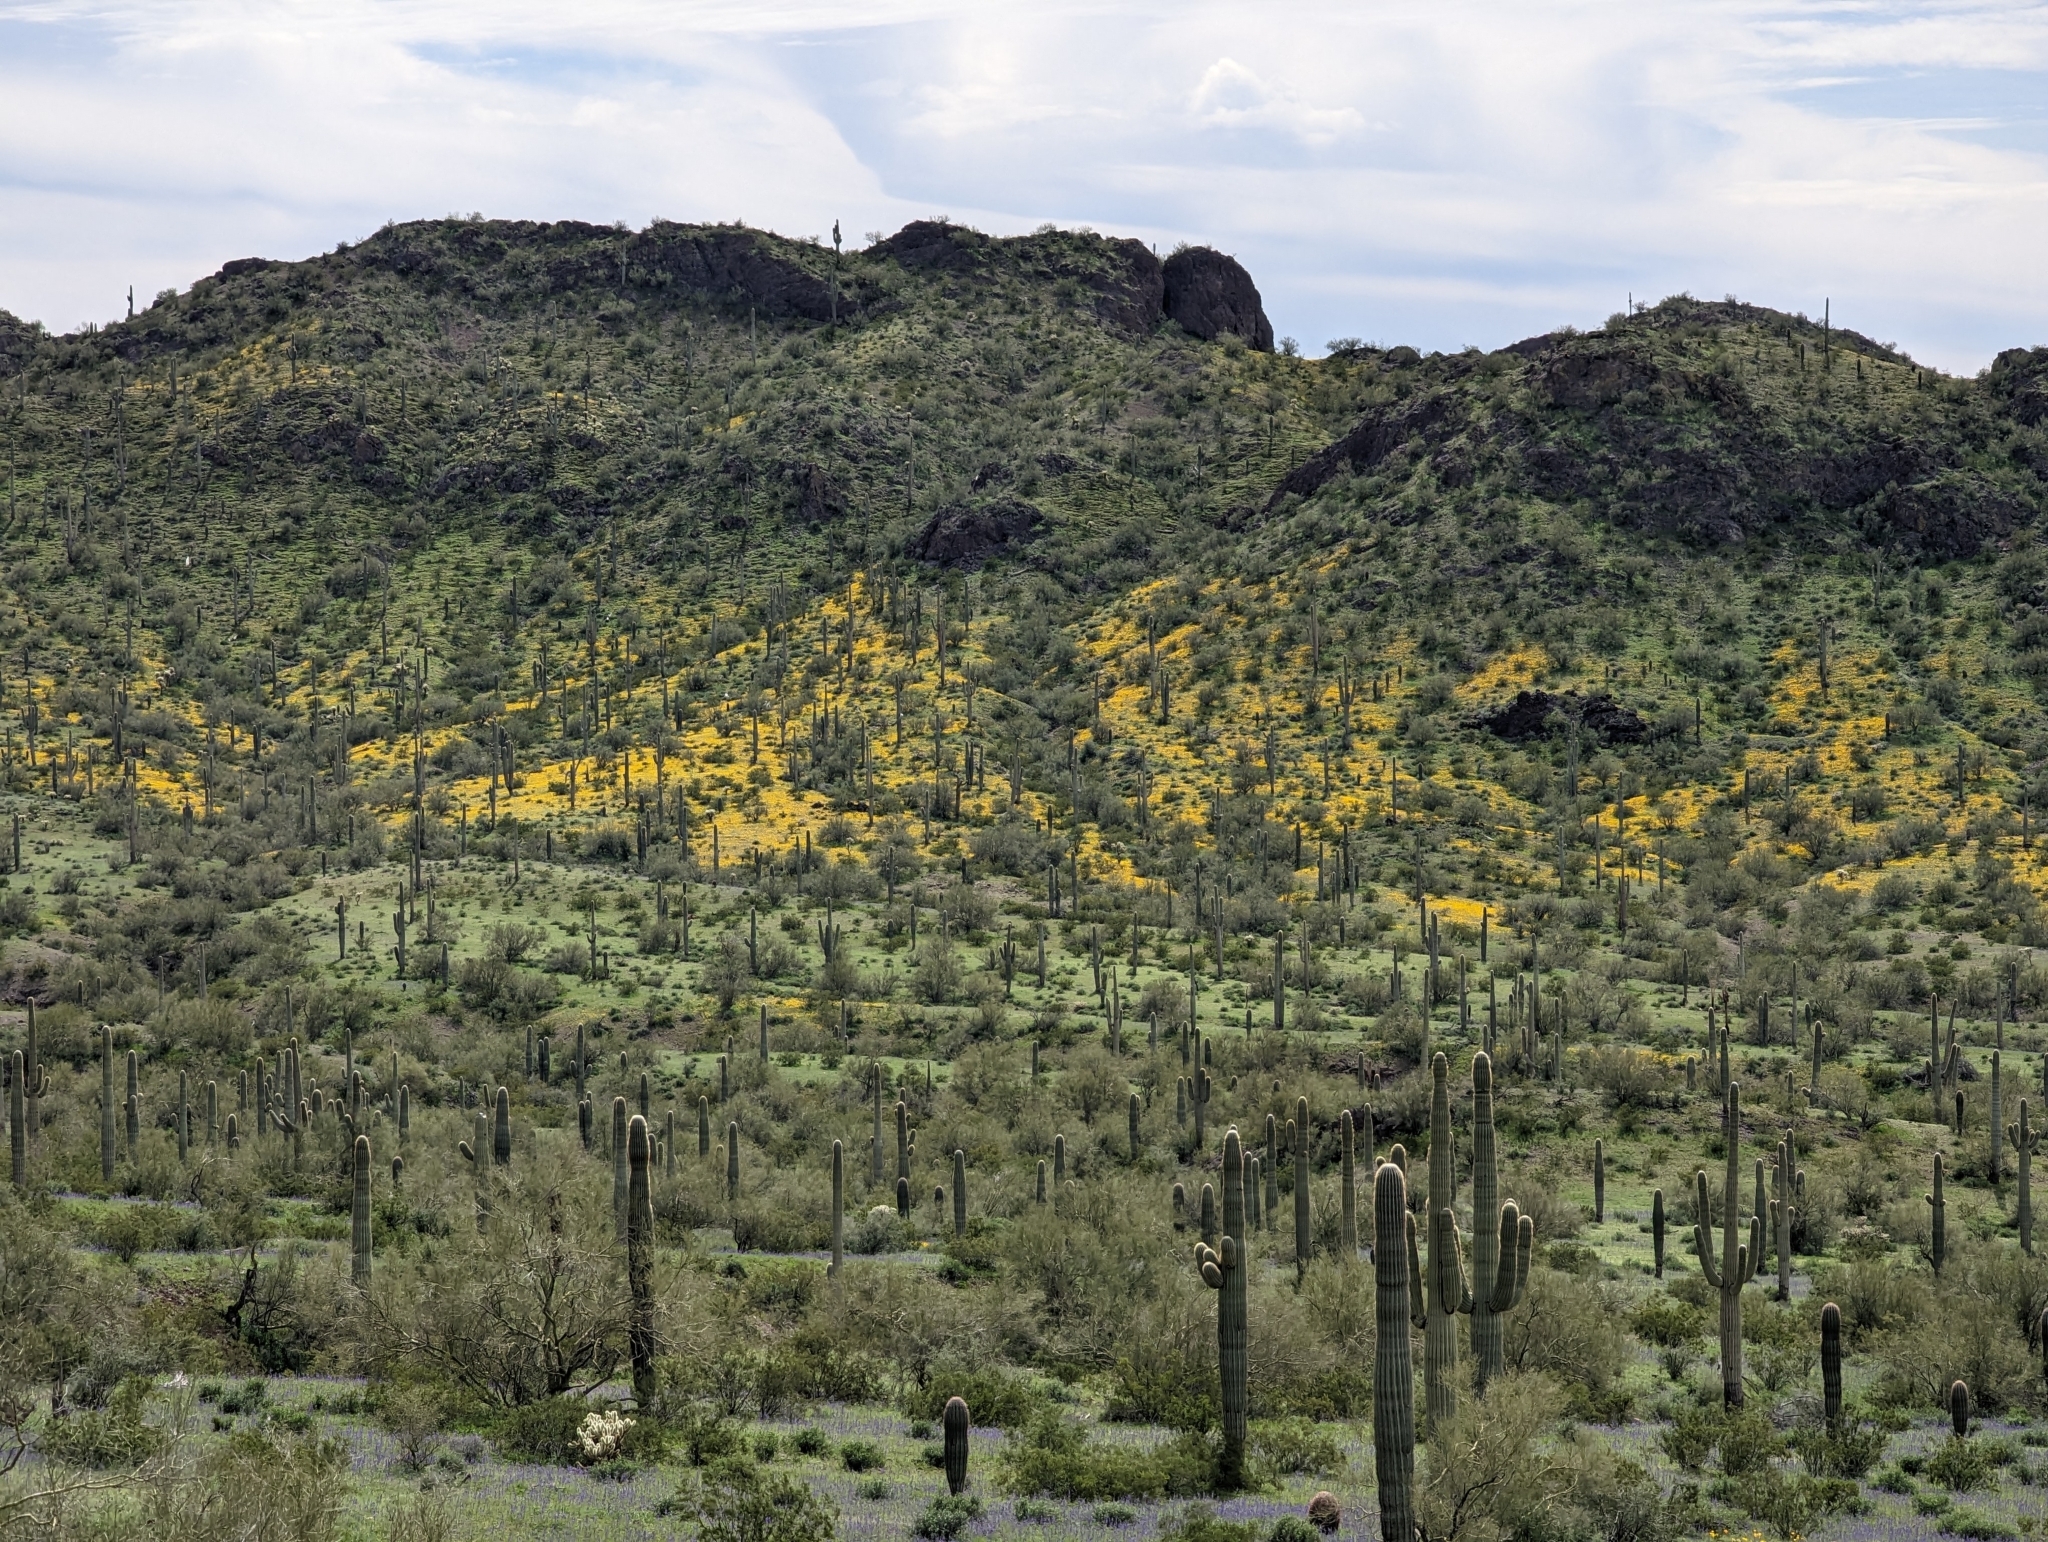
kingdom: Plantae
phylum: Tracheophyta
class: Magnoliopsida
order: Caryophyllales
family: Cactaceae
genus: Carnegiea
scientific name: Carnegiea gigantea
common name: Saguaro
